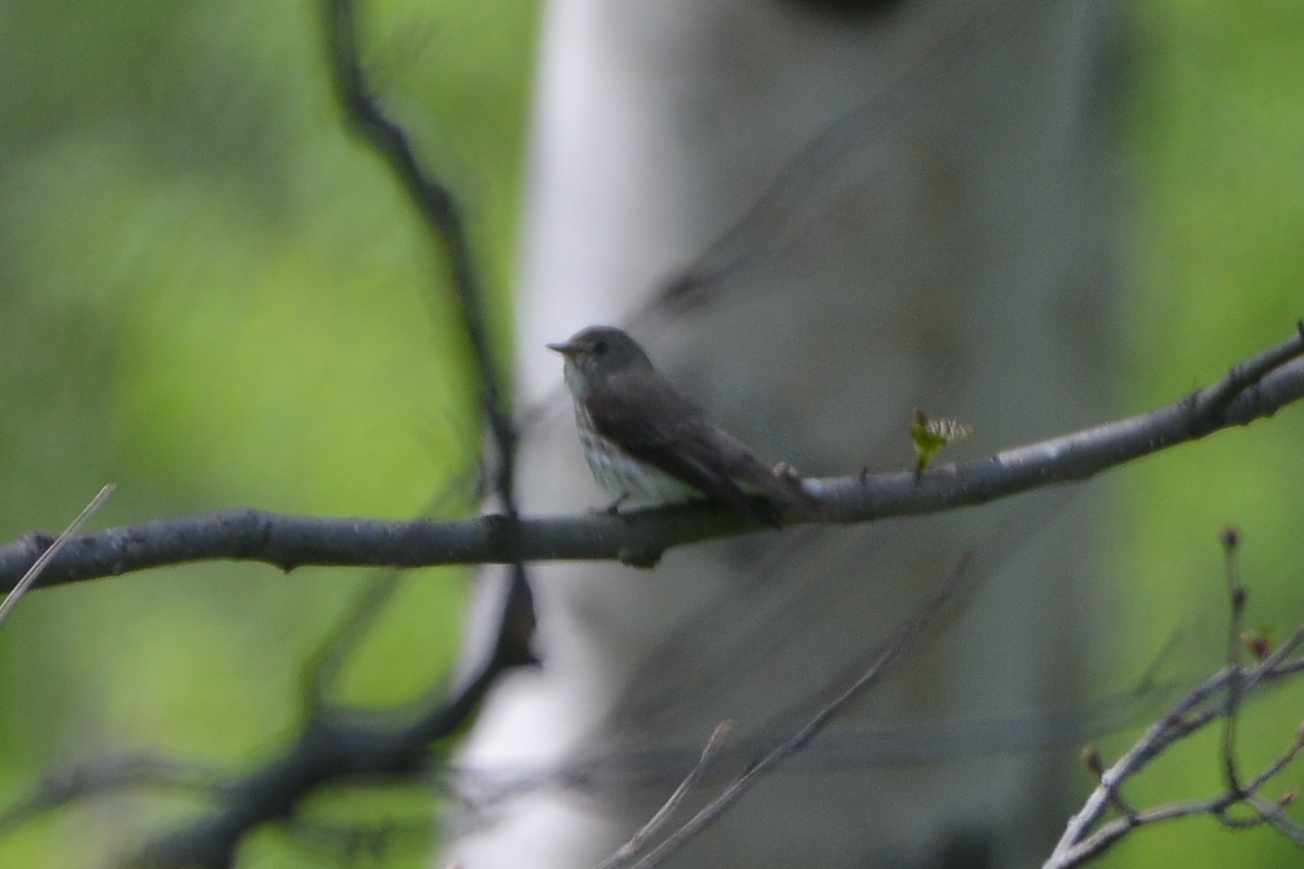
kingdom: Animalia
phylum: Chordata
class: Aves
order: Passeriformes
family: Muscicapidae
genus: Muscicapa
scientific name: Muscicapa sibirica
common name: Dark-sided flycatcher
